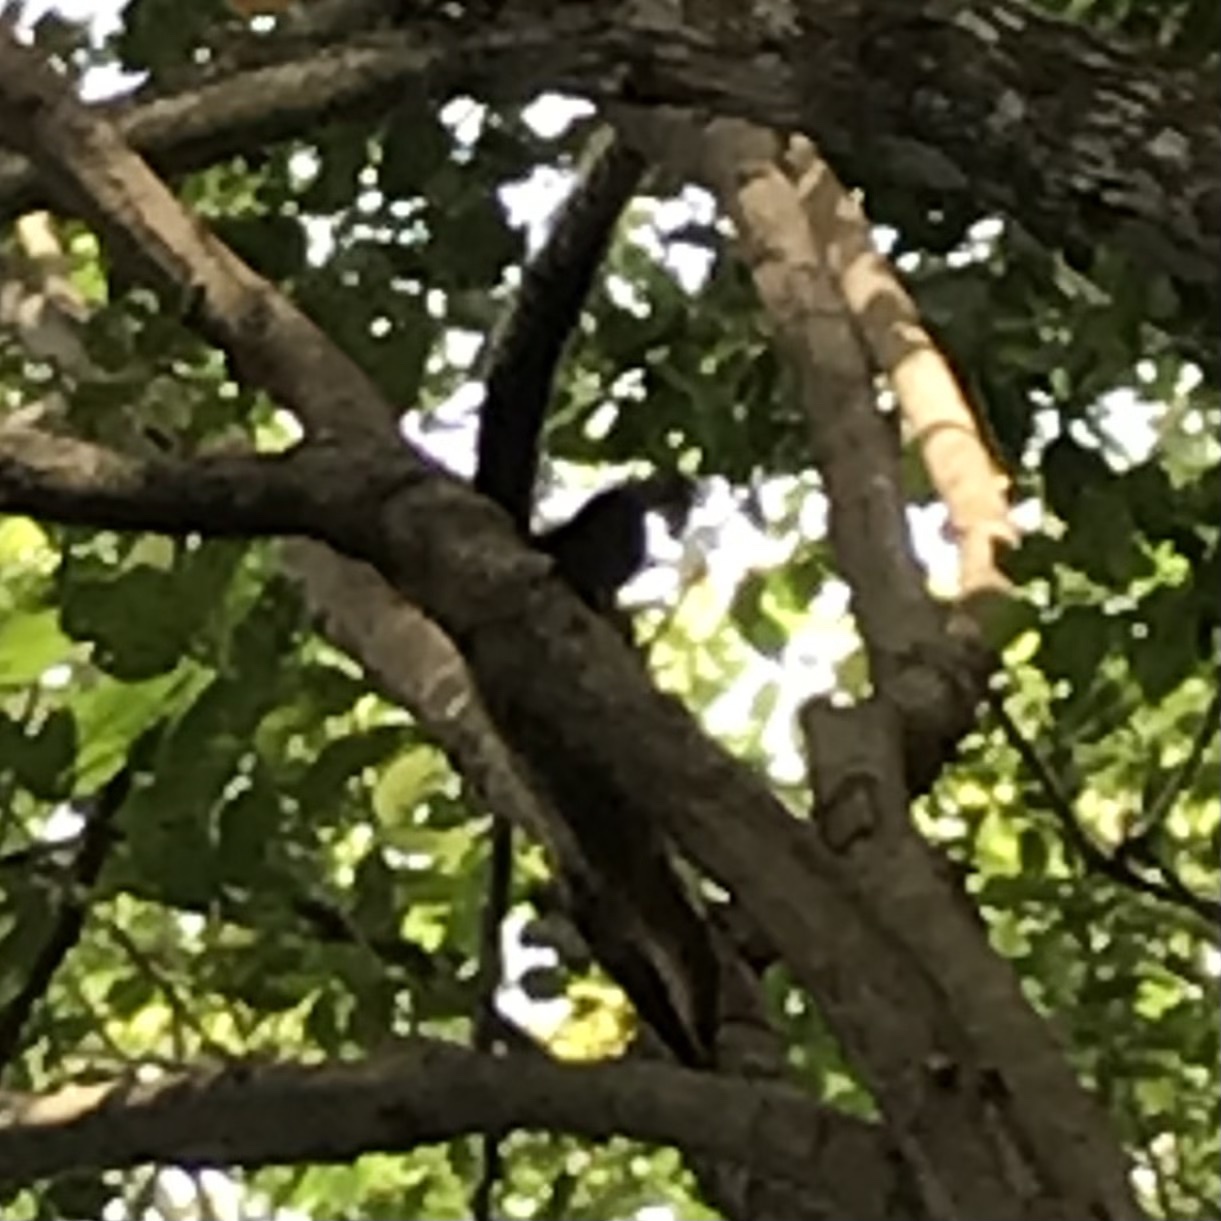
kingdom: Animalia
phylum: Chordata
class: Mammalia
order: Rodentia
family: Sciuridae
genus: Ratufa
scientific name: Ratufa bicolor
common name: Black giant squirrel
